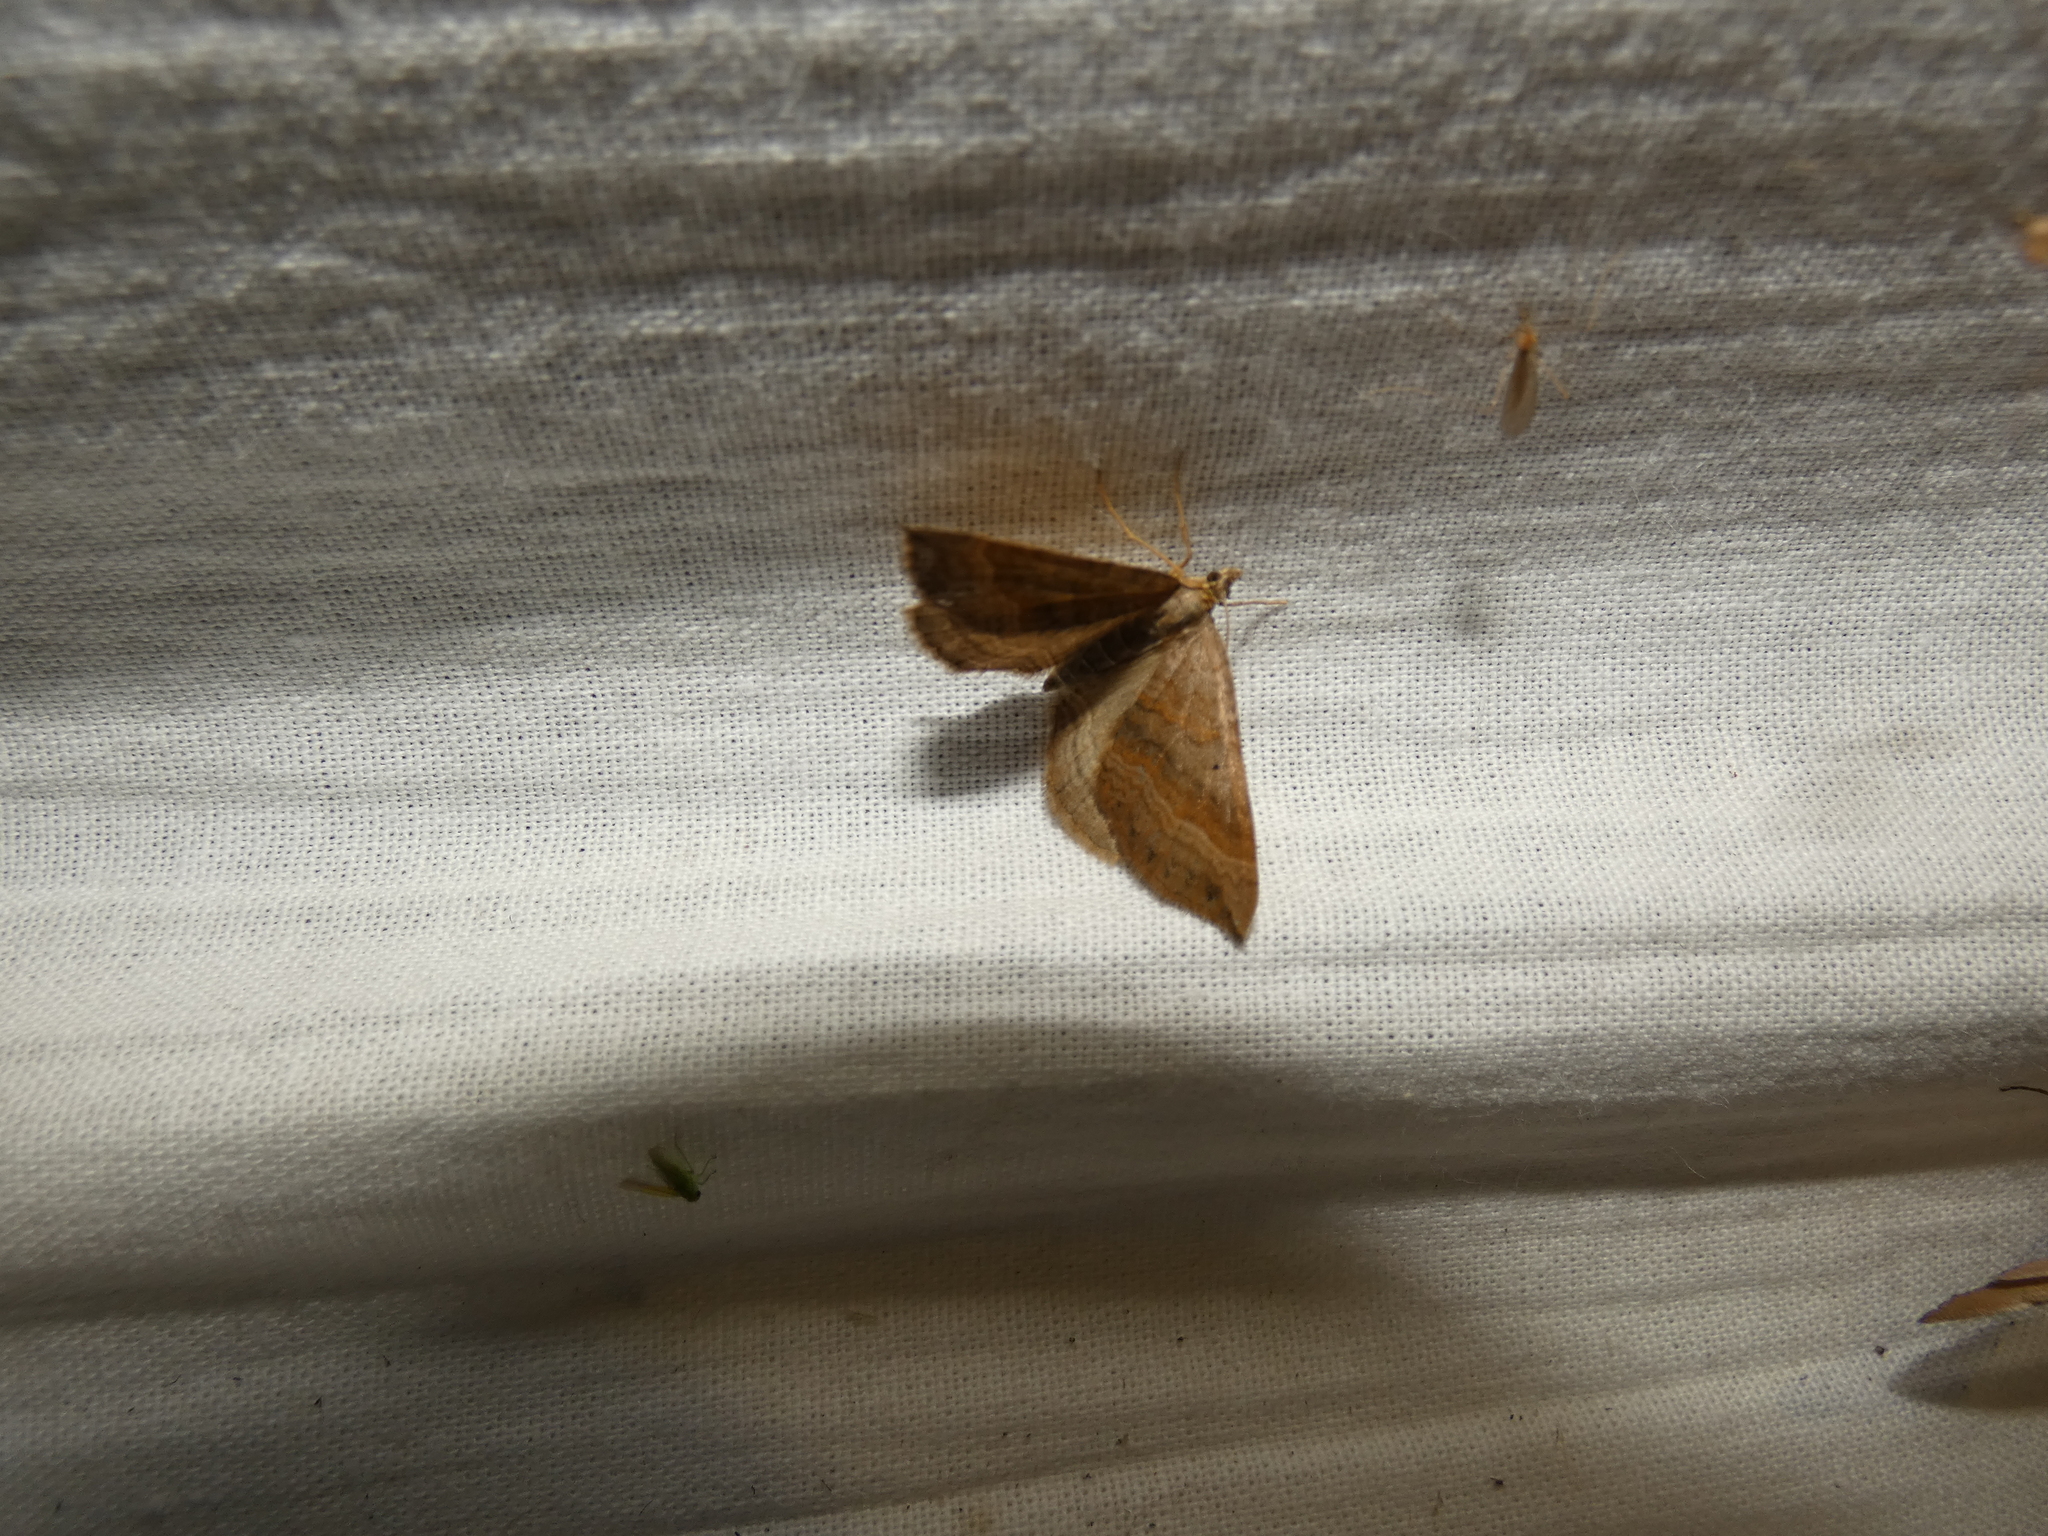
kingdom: Animalia
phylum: Arthropoda
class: Insecta
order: Lepidoptera
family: Geometridae
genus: Scotopteryx
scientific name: Scotopteryx chenopodiata
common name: Shaded broad-bar
